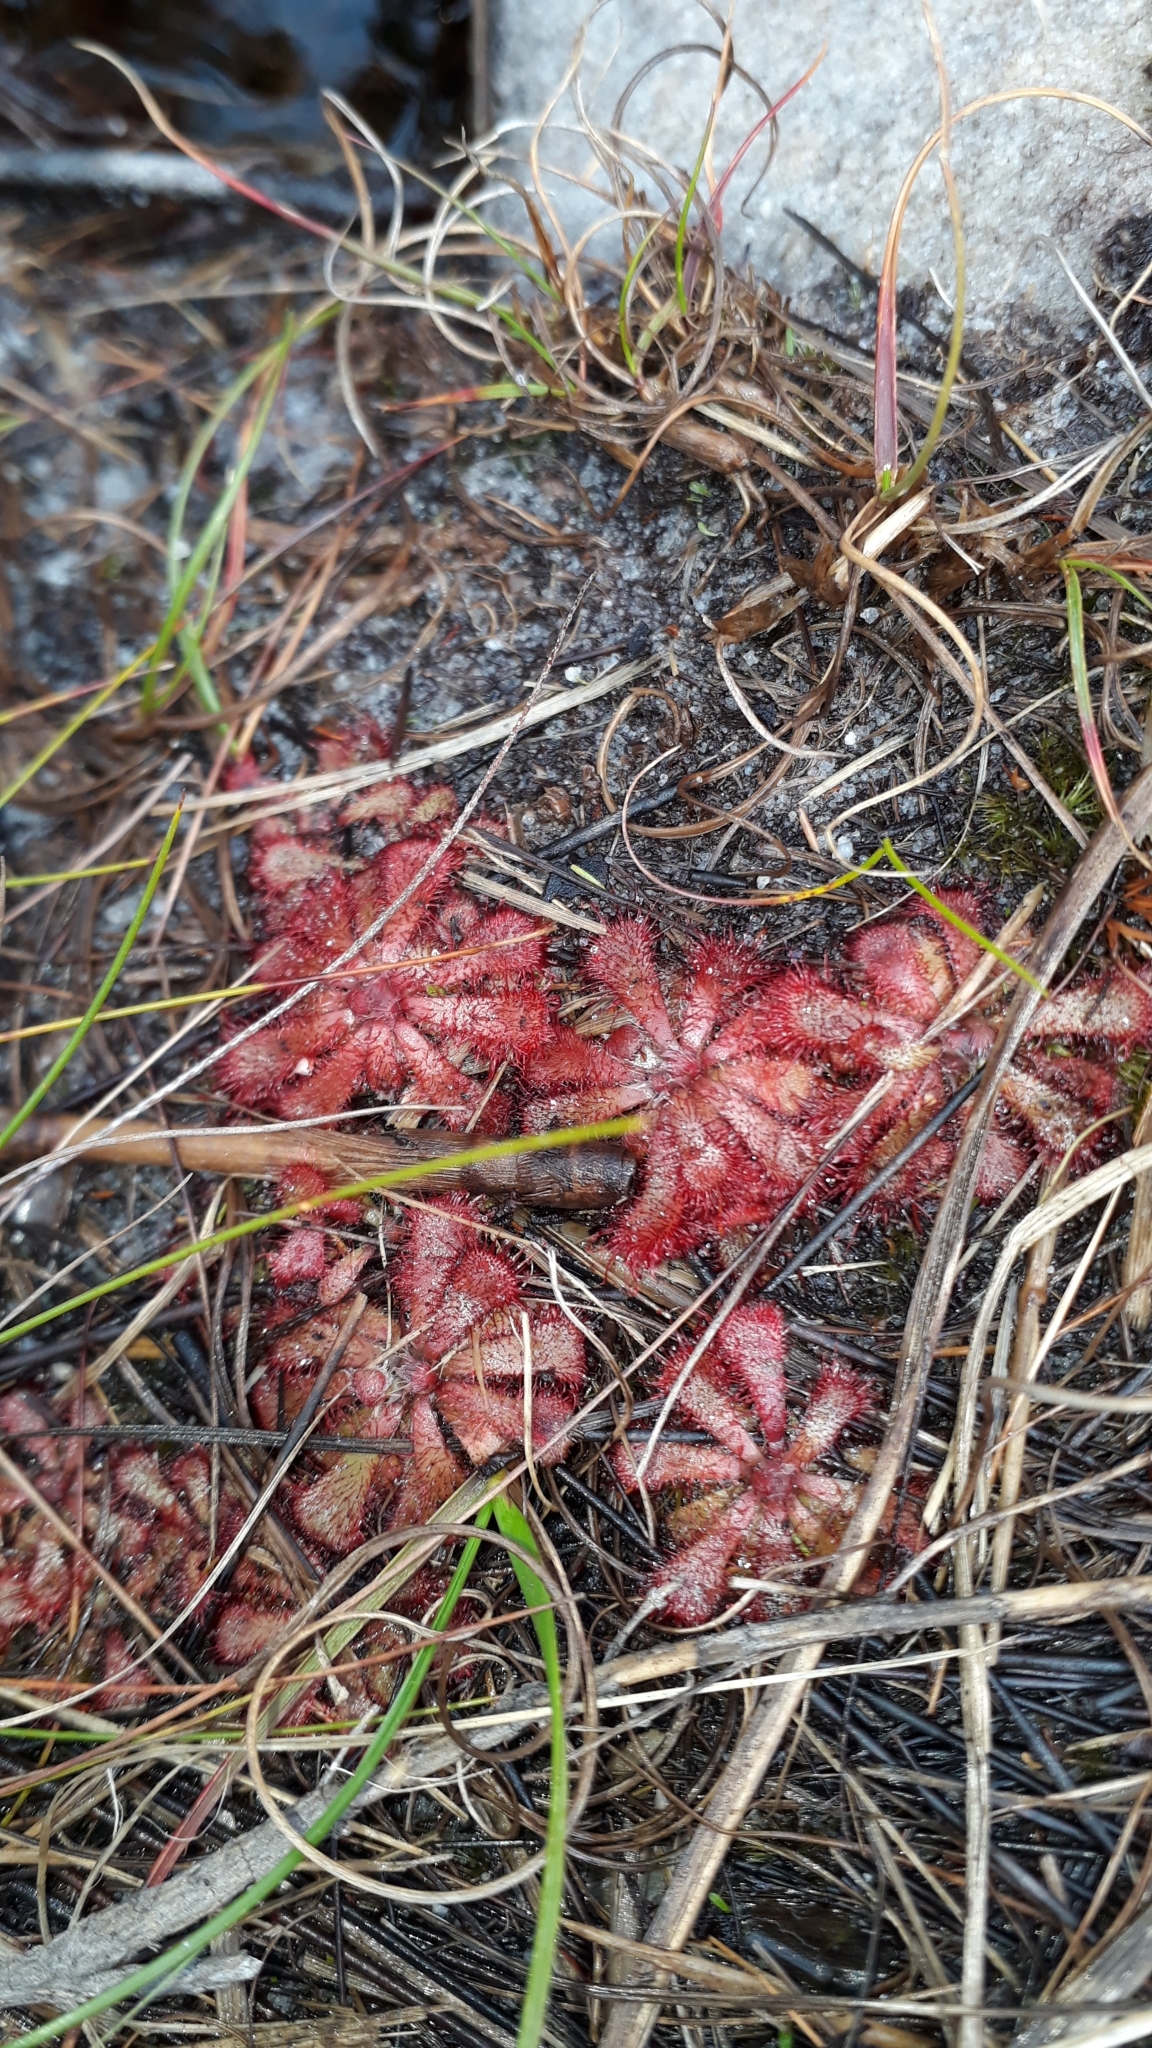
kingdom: Plantae
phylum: Tracheophyta
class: Magnoliopsida
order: Caryophyllales
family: Droseraceae
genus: Drosera
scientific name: Drosera aliciae
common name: Alice sundew
